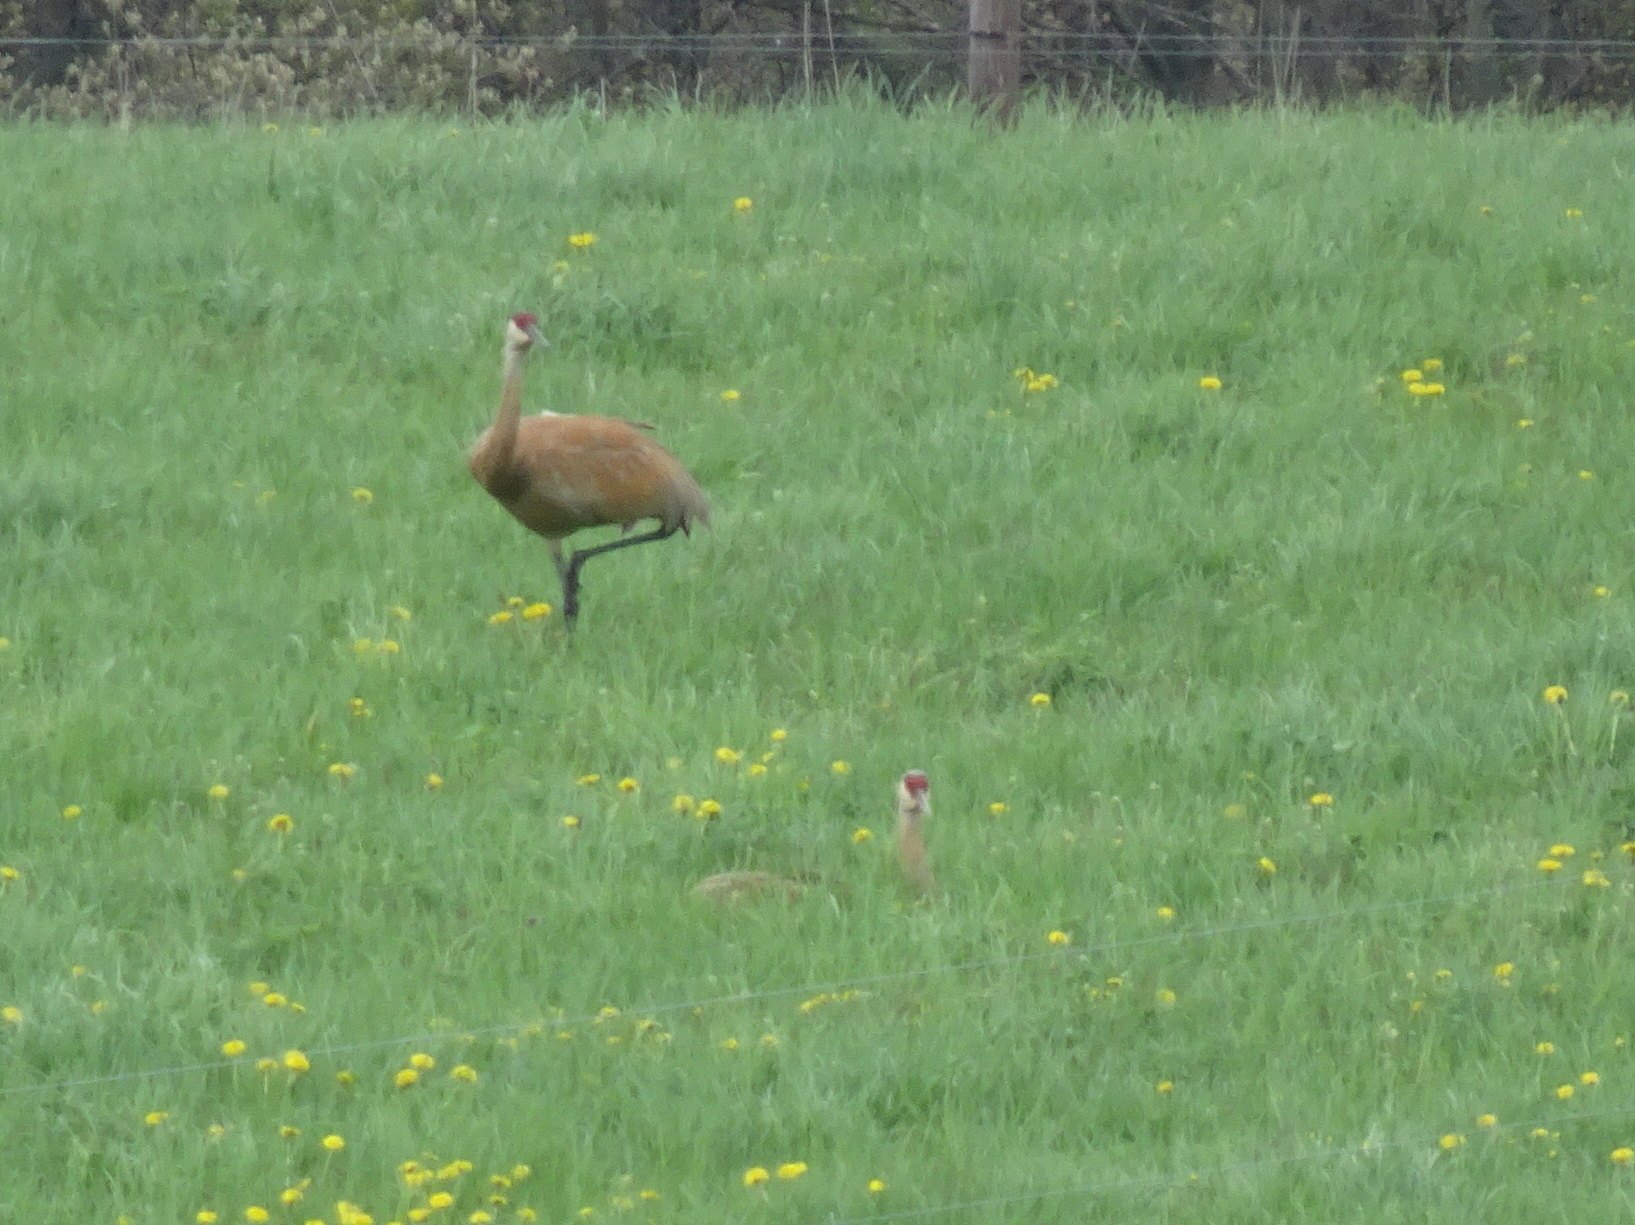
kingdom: Animalia
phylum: Chordata
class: Aves
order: Gruiformes
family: Gruidae
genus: Grus
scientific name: Grus canadensis
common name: Sandhill crane
